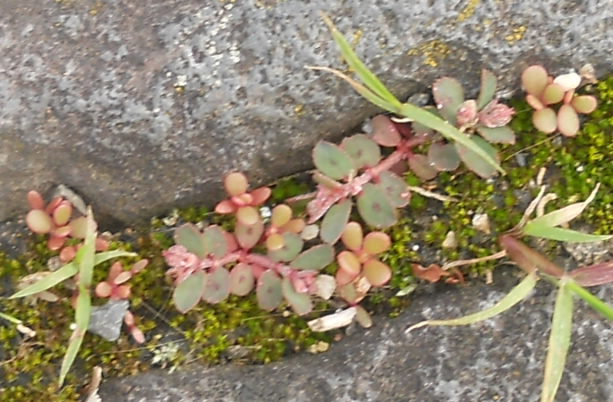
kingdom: Plantae
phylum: Tracheophyta
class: Magnoliopsida
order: Malpighiales
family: Euphorbiaceae
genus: Euphorbia
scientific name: Euphorbia maculata
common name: Spotted spurge
